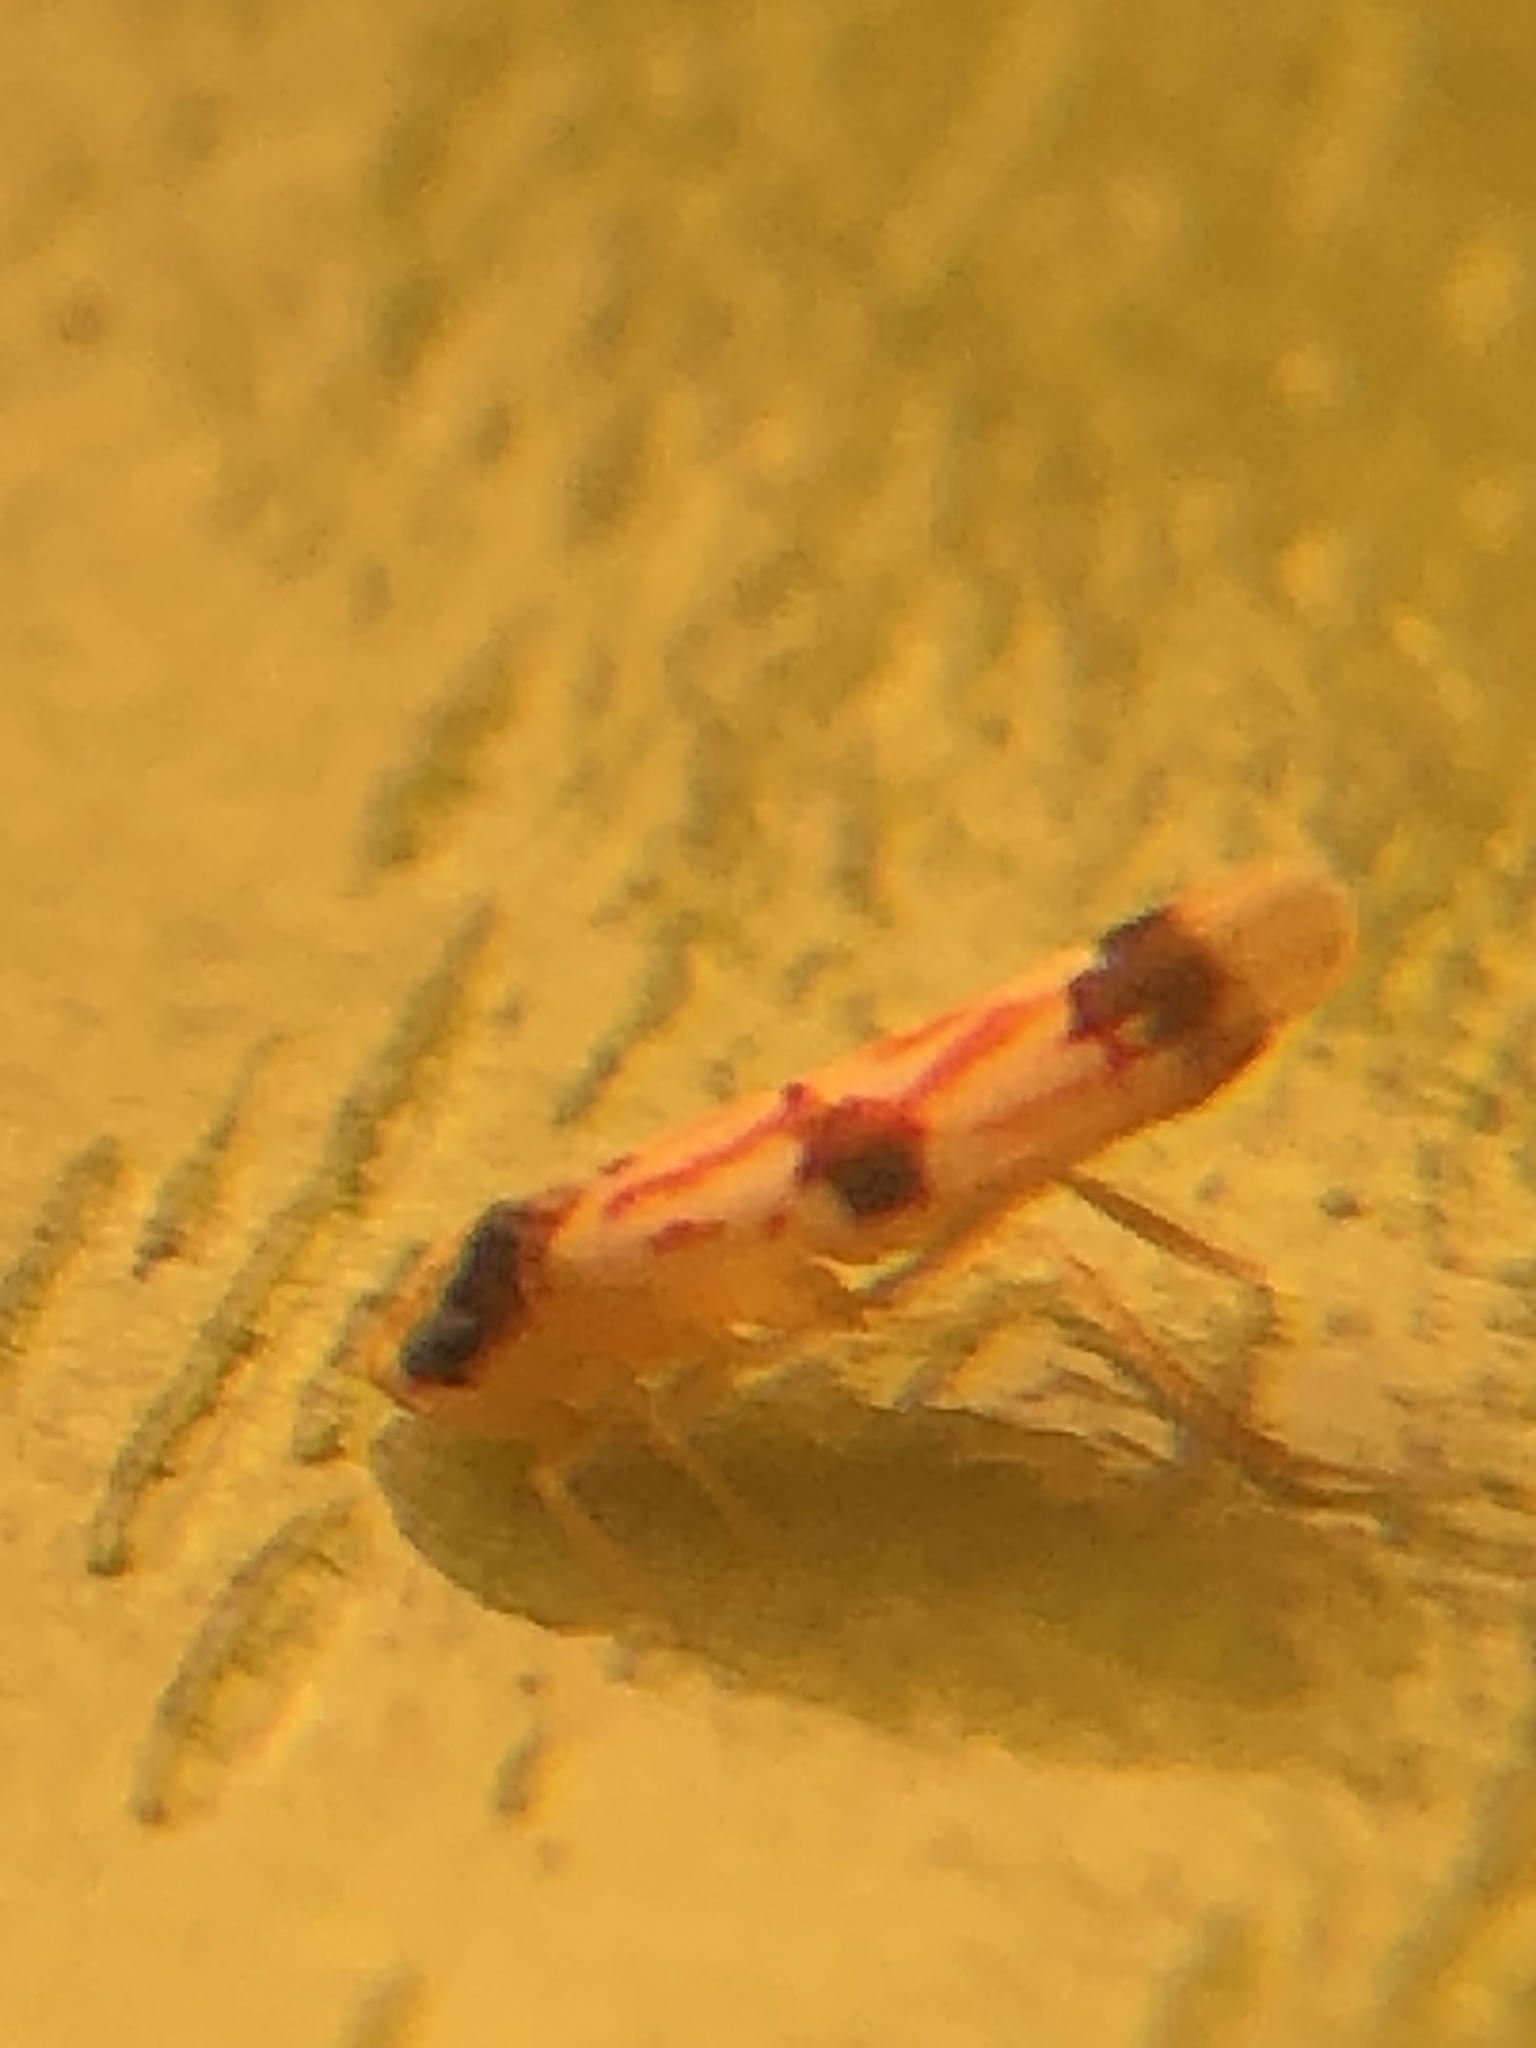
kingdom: Animalia
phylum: Arthropoda
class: Insecta
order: Hemiptera
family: Cicadellidae
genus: Erythroneura
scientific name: Erythroneura calycula
